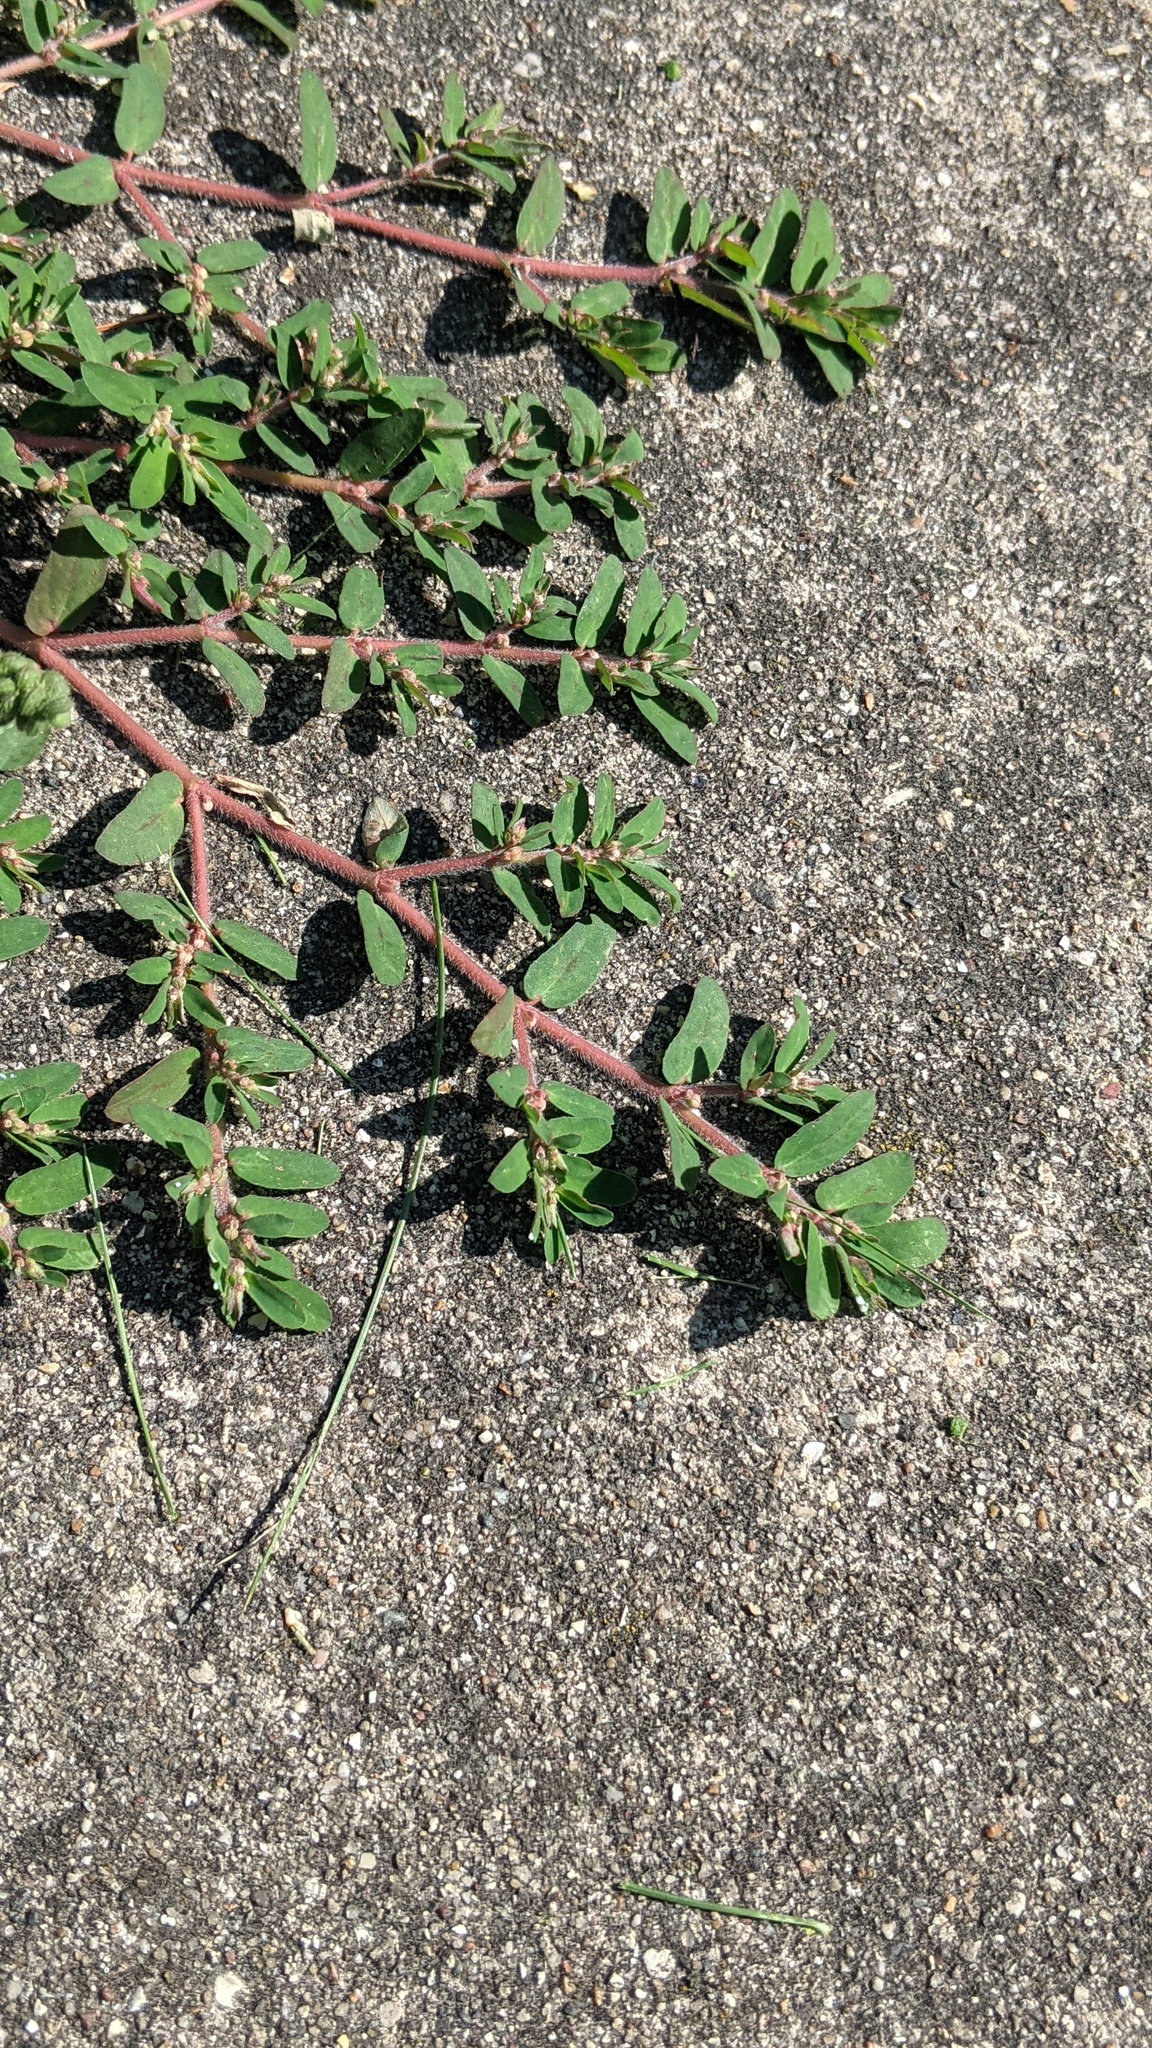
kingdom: Plantae
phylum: Tracheophyta
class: Magnoliopsida
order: Malpighiales
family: Euphorbiaceae
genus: Euphorbia
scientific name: Euphorbia maculata
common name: Spotted spurge
